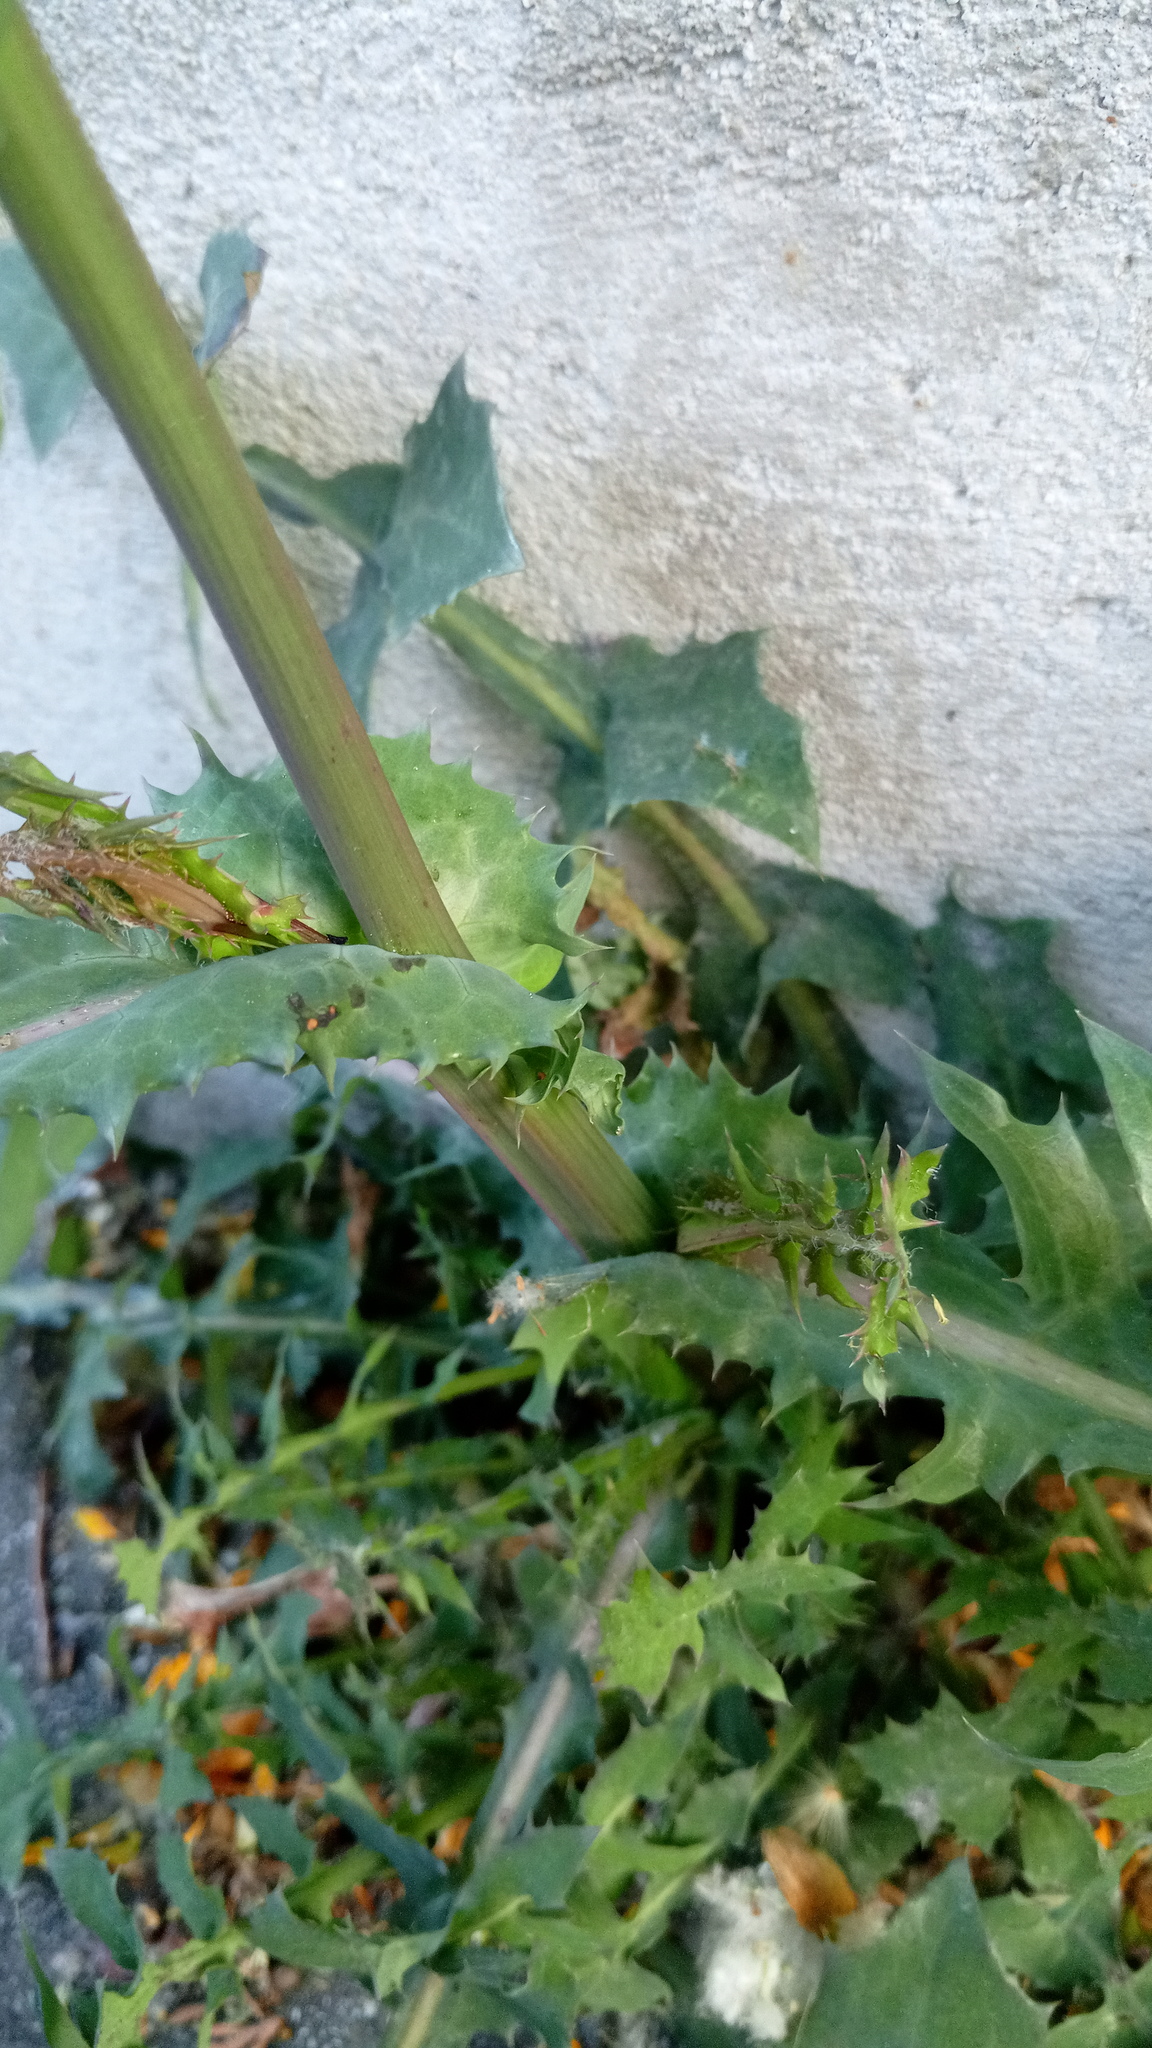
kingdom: Plantae
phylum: Tracheophyta
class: Magnoliopsida
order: Asterales
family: Asteraceae
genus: Sonchus
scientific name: Sonchus oleraceus
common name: Common sowthistle
